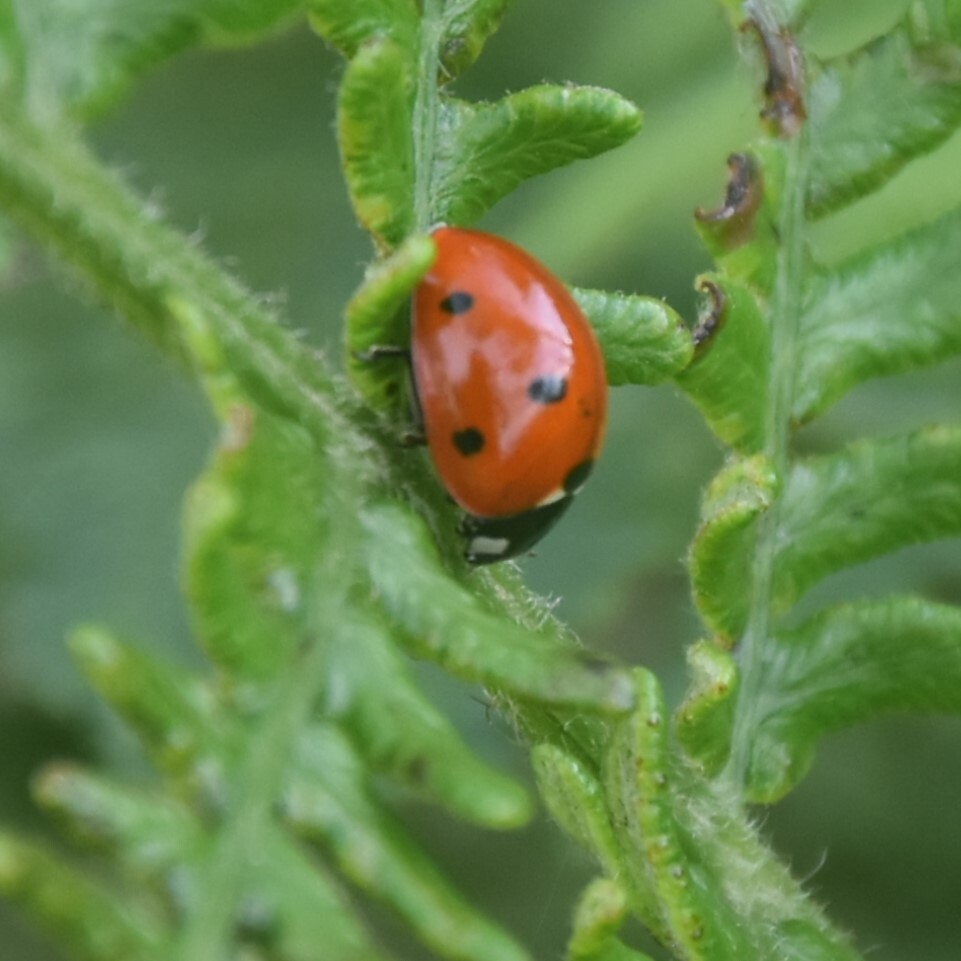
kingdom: Animalia
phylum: Arthropoda
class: Insecta
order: Coleoptera
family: Coccinellidae
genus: Coccinella
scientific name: Coccinella septempunctata
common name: Sevenspotted lady beetle
